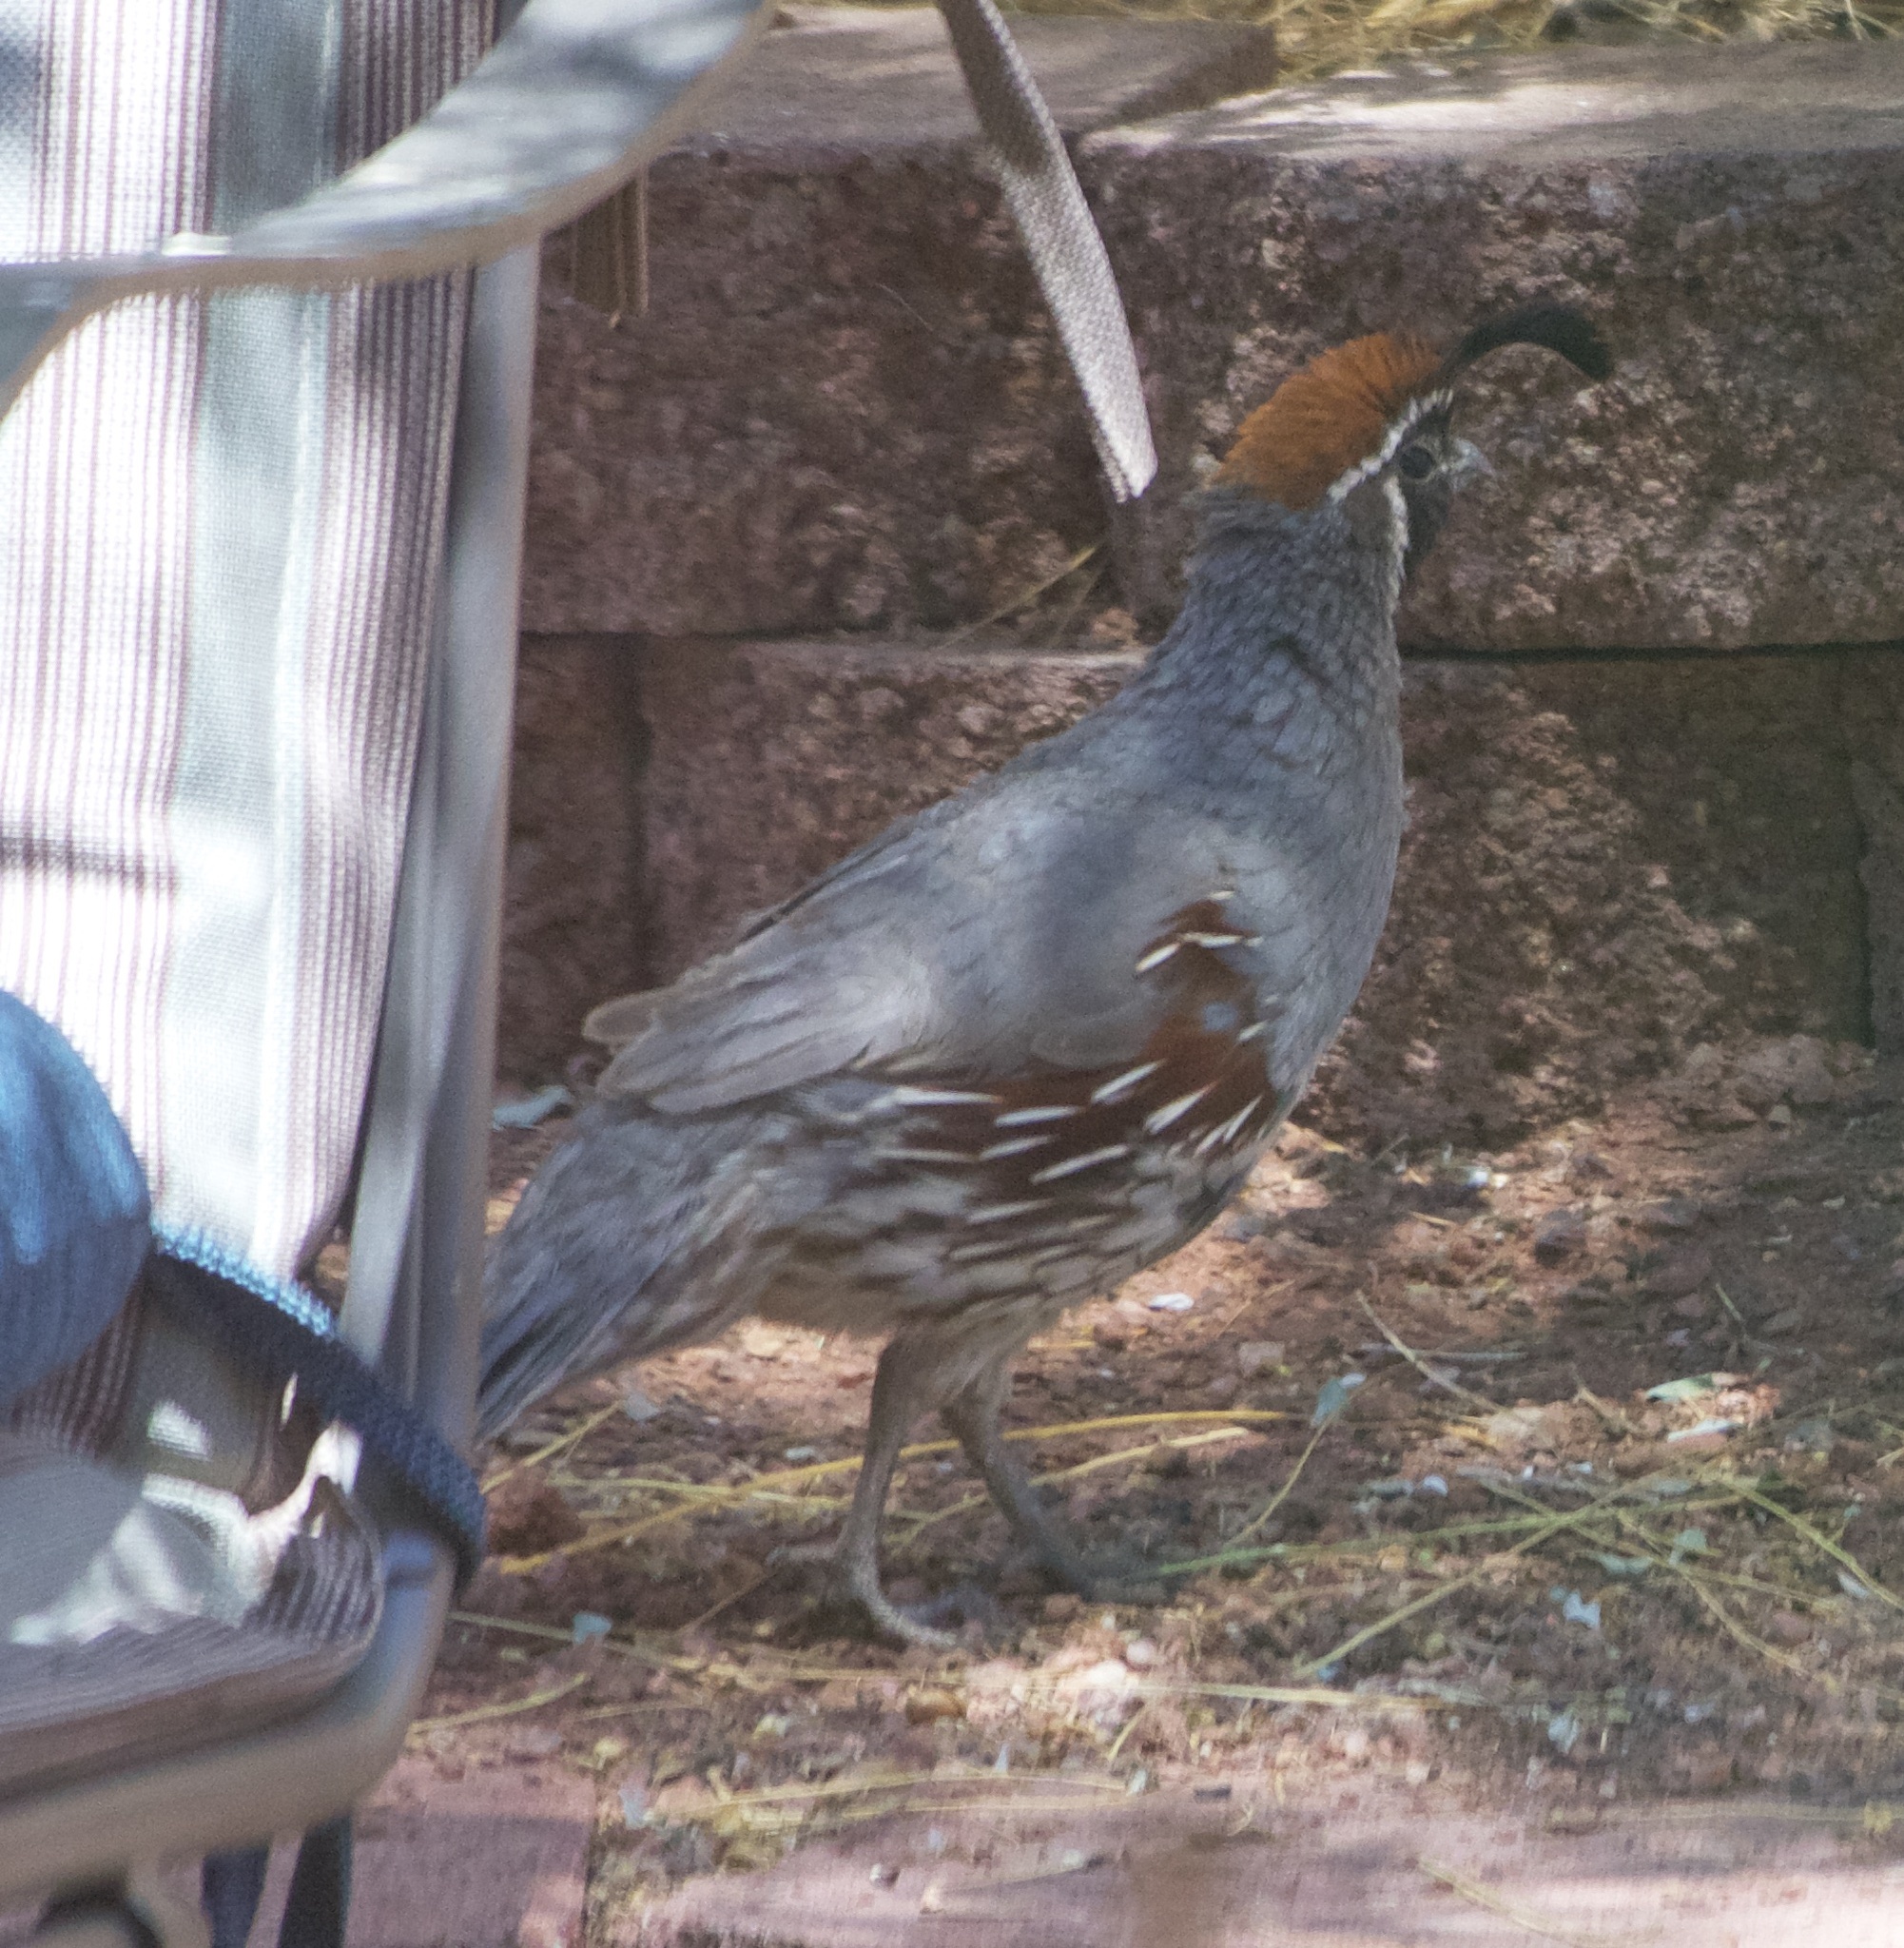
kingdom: Animalia
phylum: Chordata
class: Aves
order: Galliformes
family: Odontophoridae
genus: Callipepla
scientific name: Callipepla gambelii
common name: Gambel's quail
